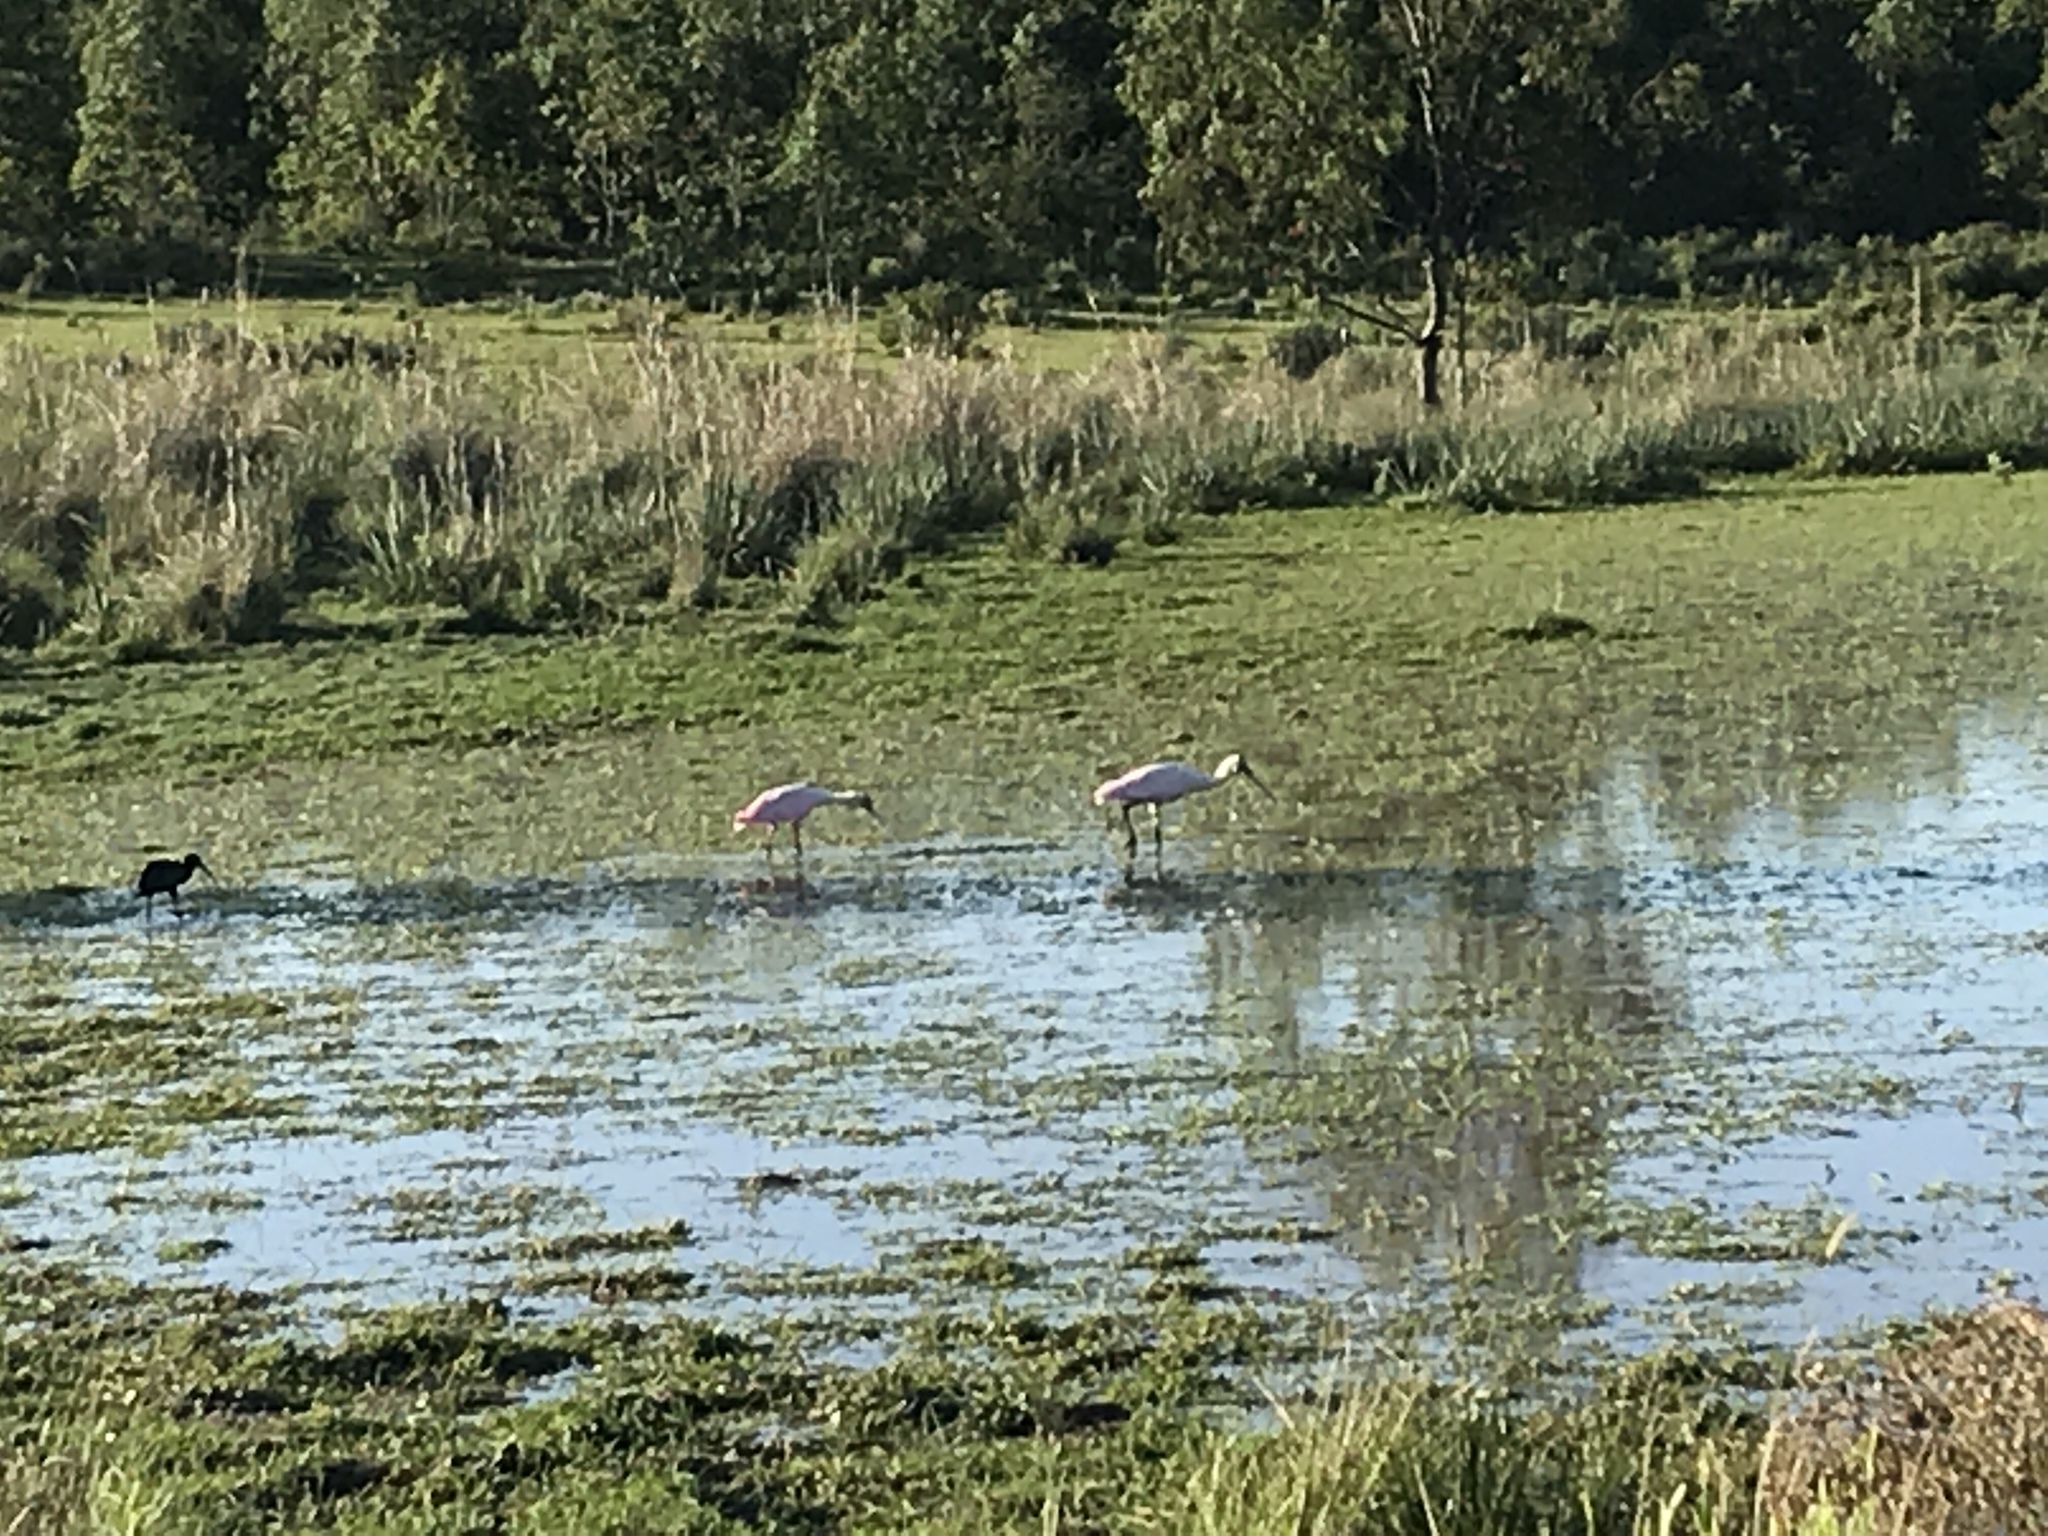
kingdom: Animalia
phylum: Chordata
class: Aves
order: Pelecaniformes
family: Threskiornithidae
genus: Platalea
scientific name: Platalea ajaja
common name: Roseate spoonbill
